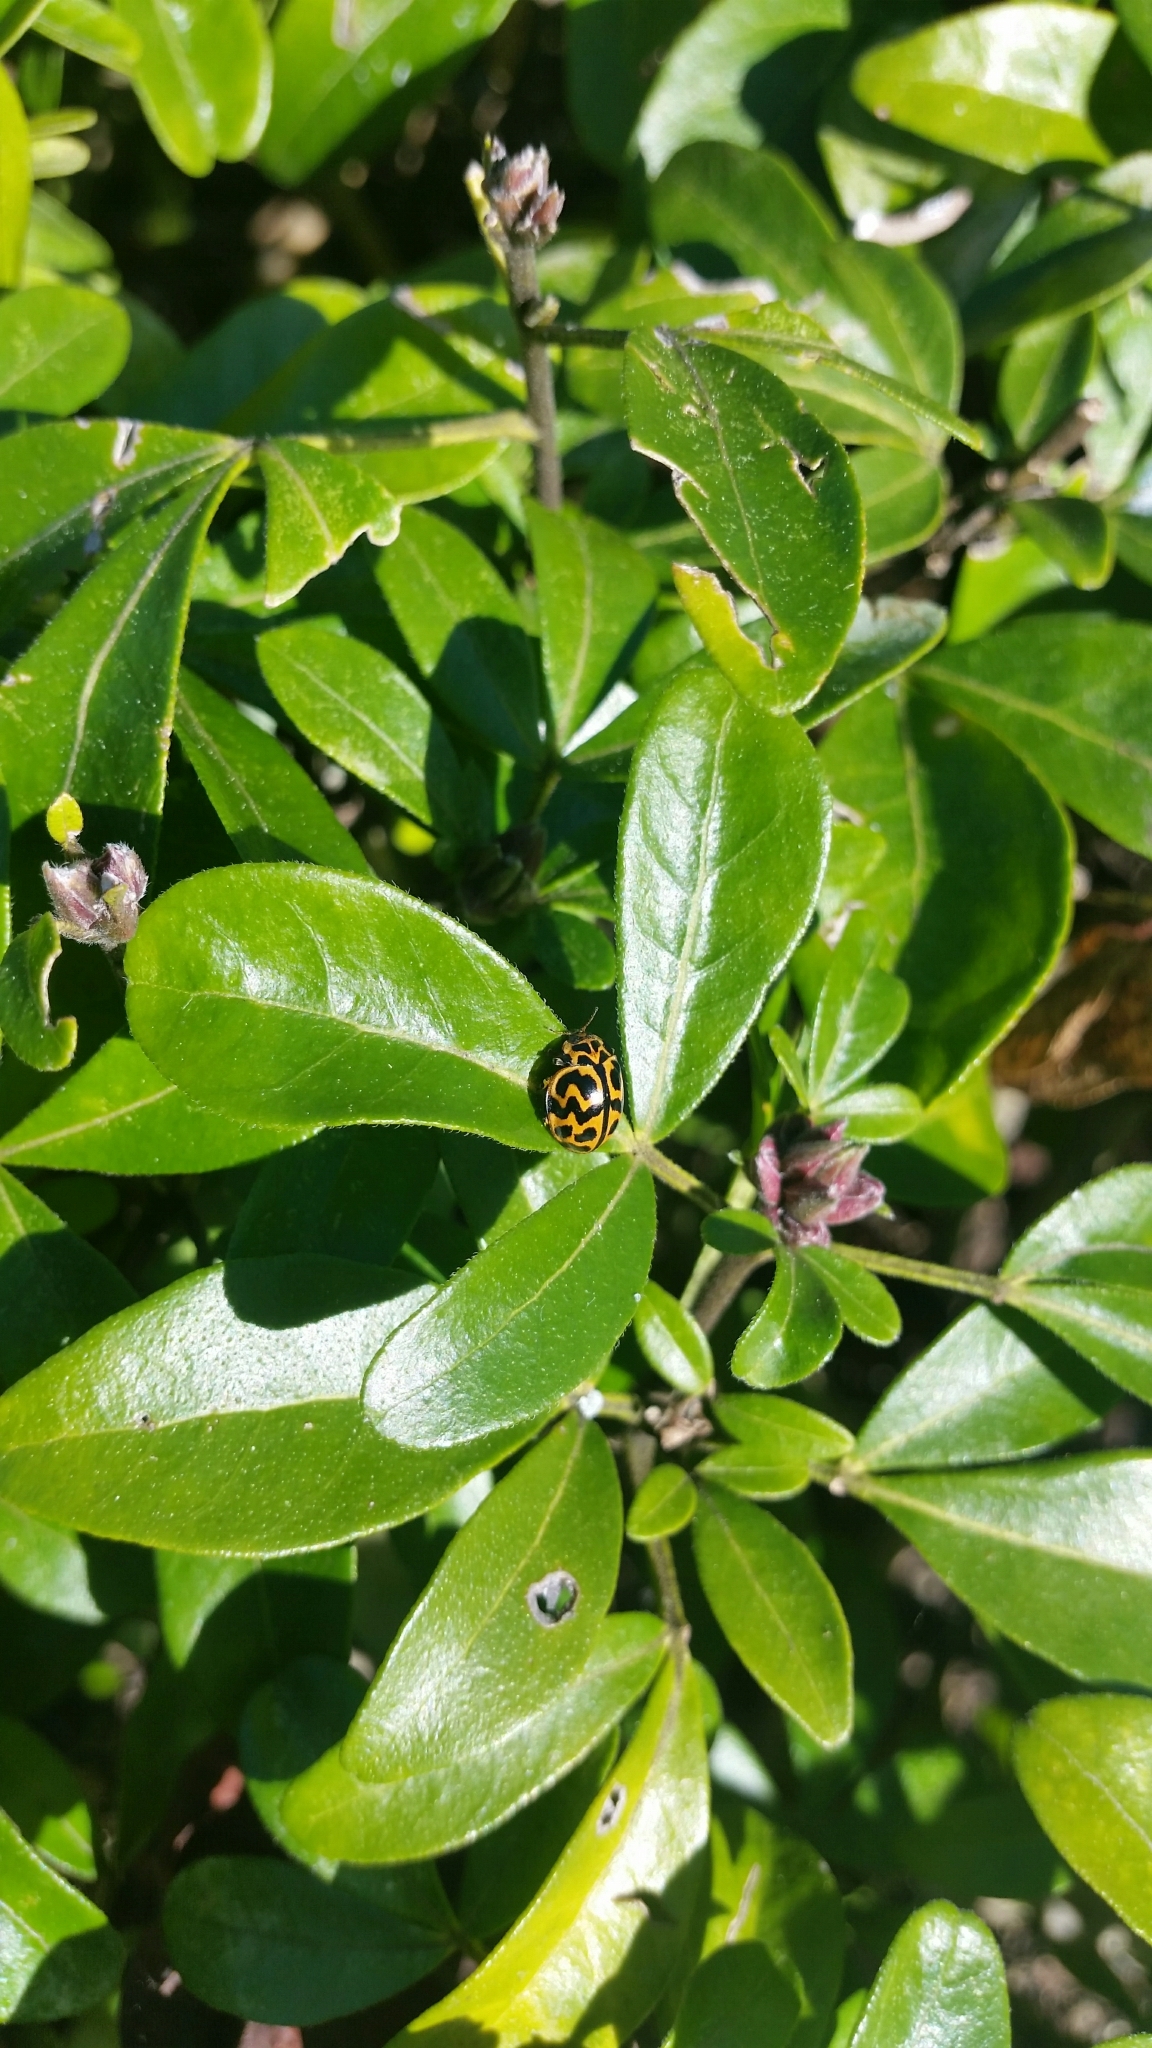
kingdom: Animalia
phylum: Arthropoda
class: Insecta
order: Coleoptera
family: Coccinellidae
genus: Cleobora
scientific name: Cleobora
